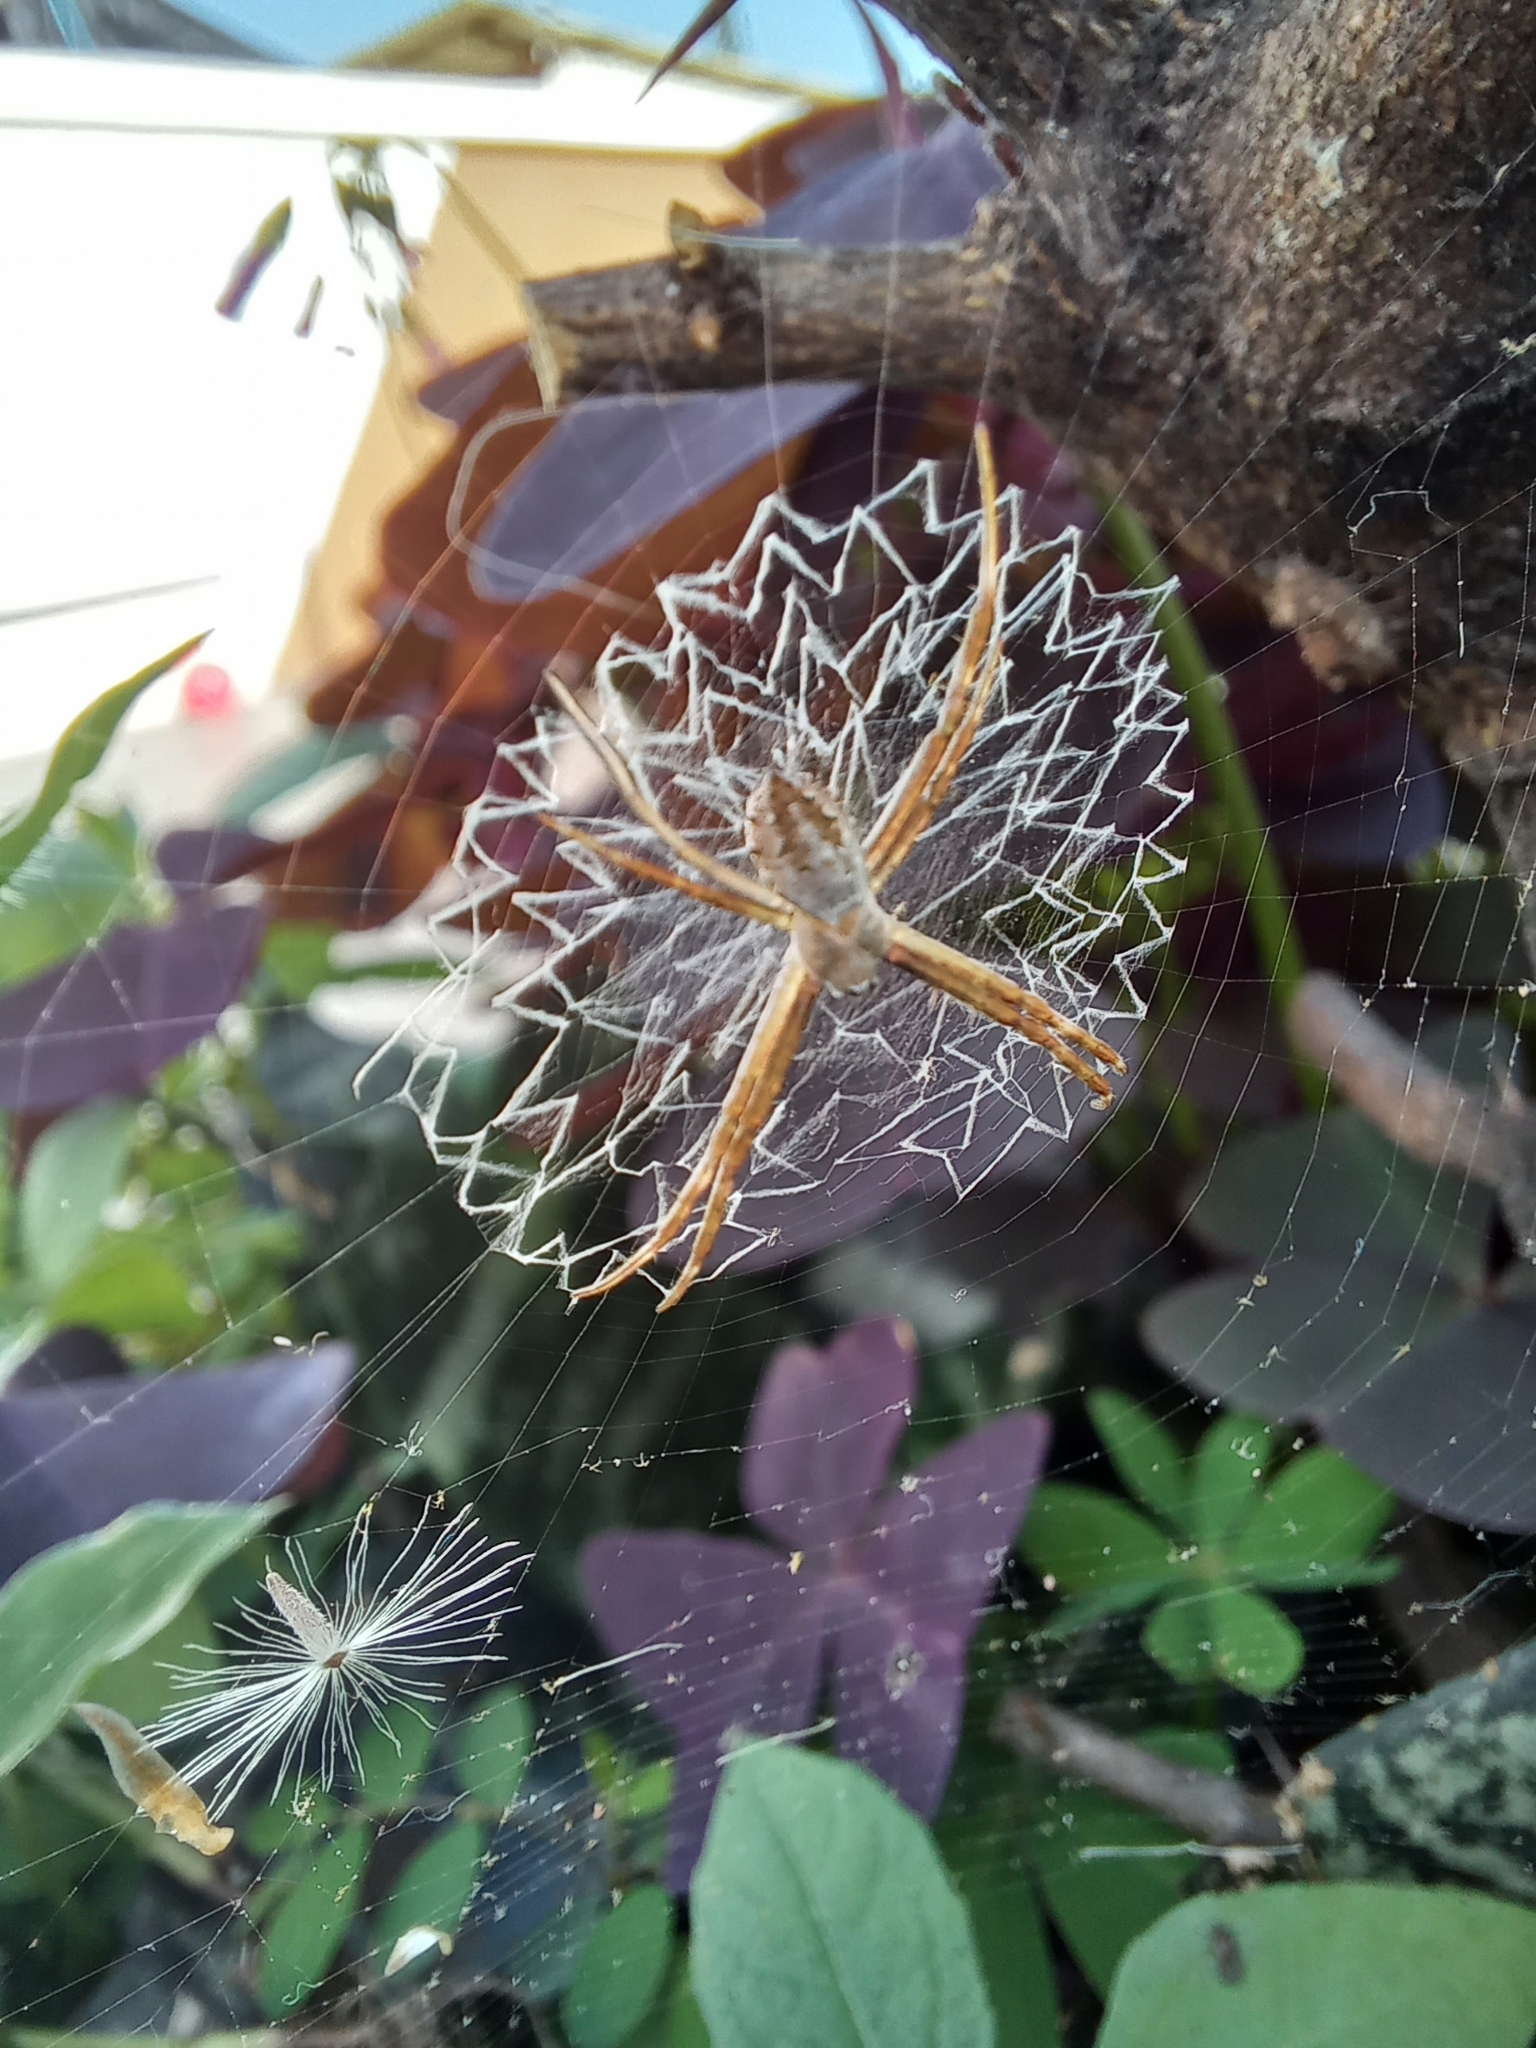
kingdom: Animalia
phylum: Arthropoda
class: Arachnida
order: Araneae
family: Araneidae
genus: Argiope
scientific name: Argiope argentata
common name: Orb weavers
